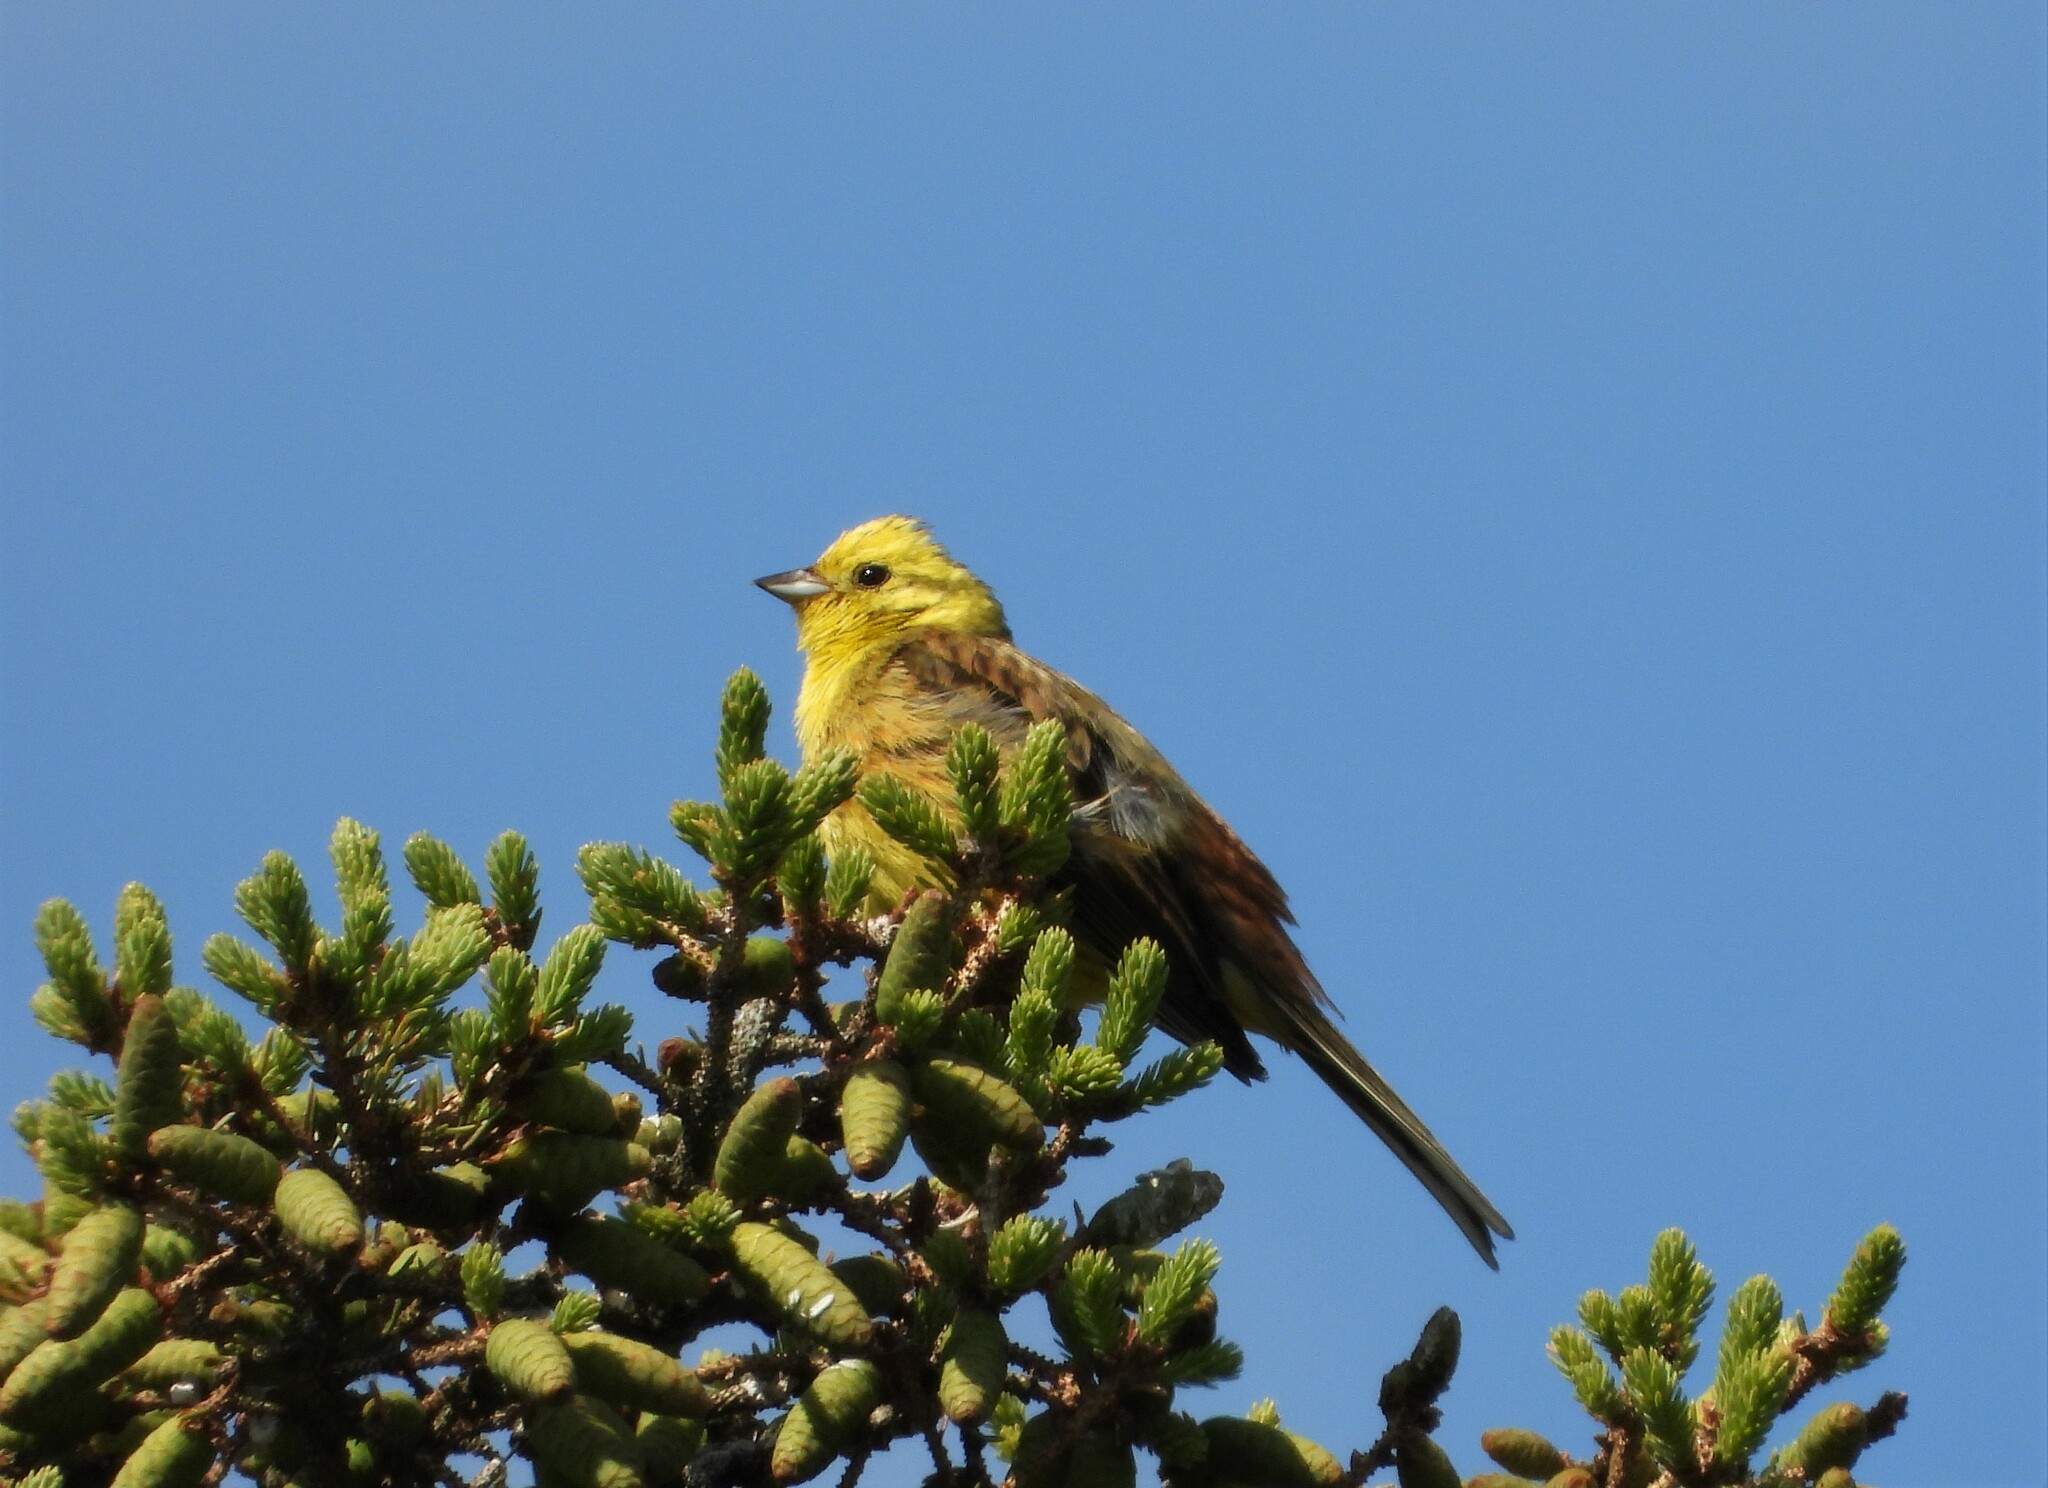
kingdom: Animalia
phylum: Chordata
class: Aves
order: Passeriformes
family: Emberizidae
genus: Emberiza
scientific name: Emberiza citrinella
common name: Yellowhammer
